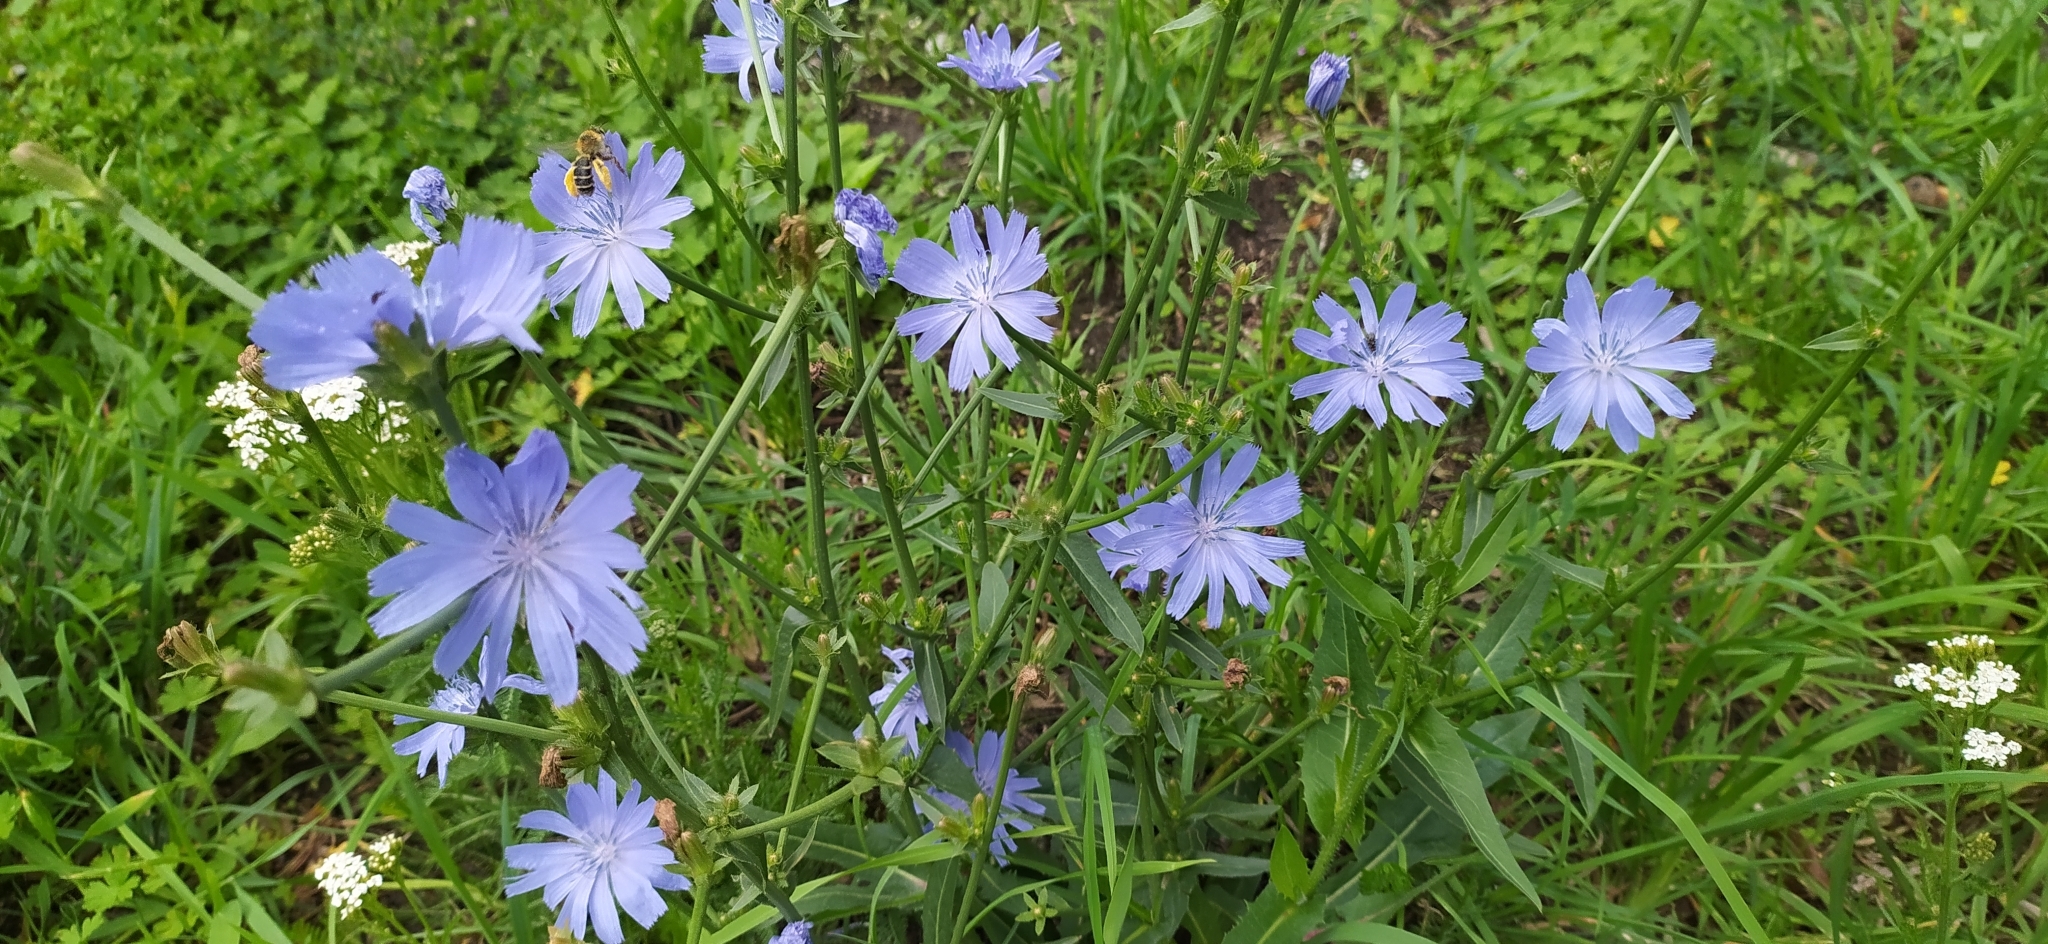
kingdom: Plantae
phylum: Tracheophyta
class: Magnoliopsida
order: Asterales
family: Asteraceae
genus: Cichorium
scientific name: Cichorium intybus
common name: Chicory
